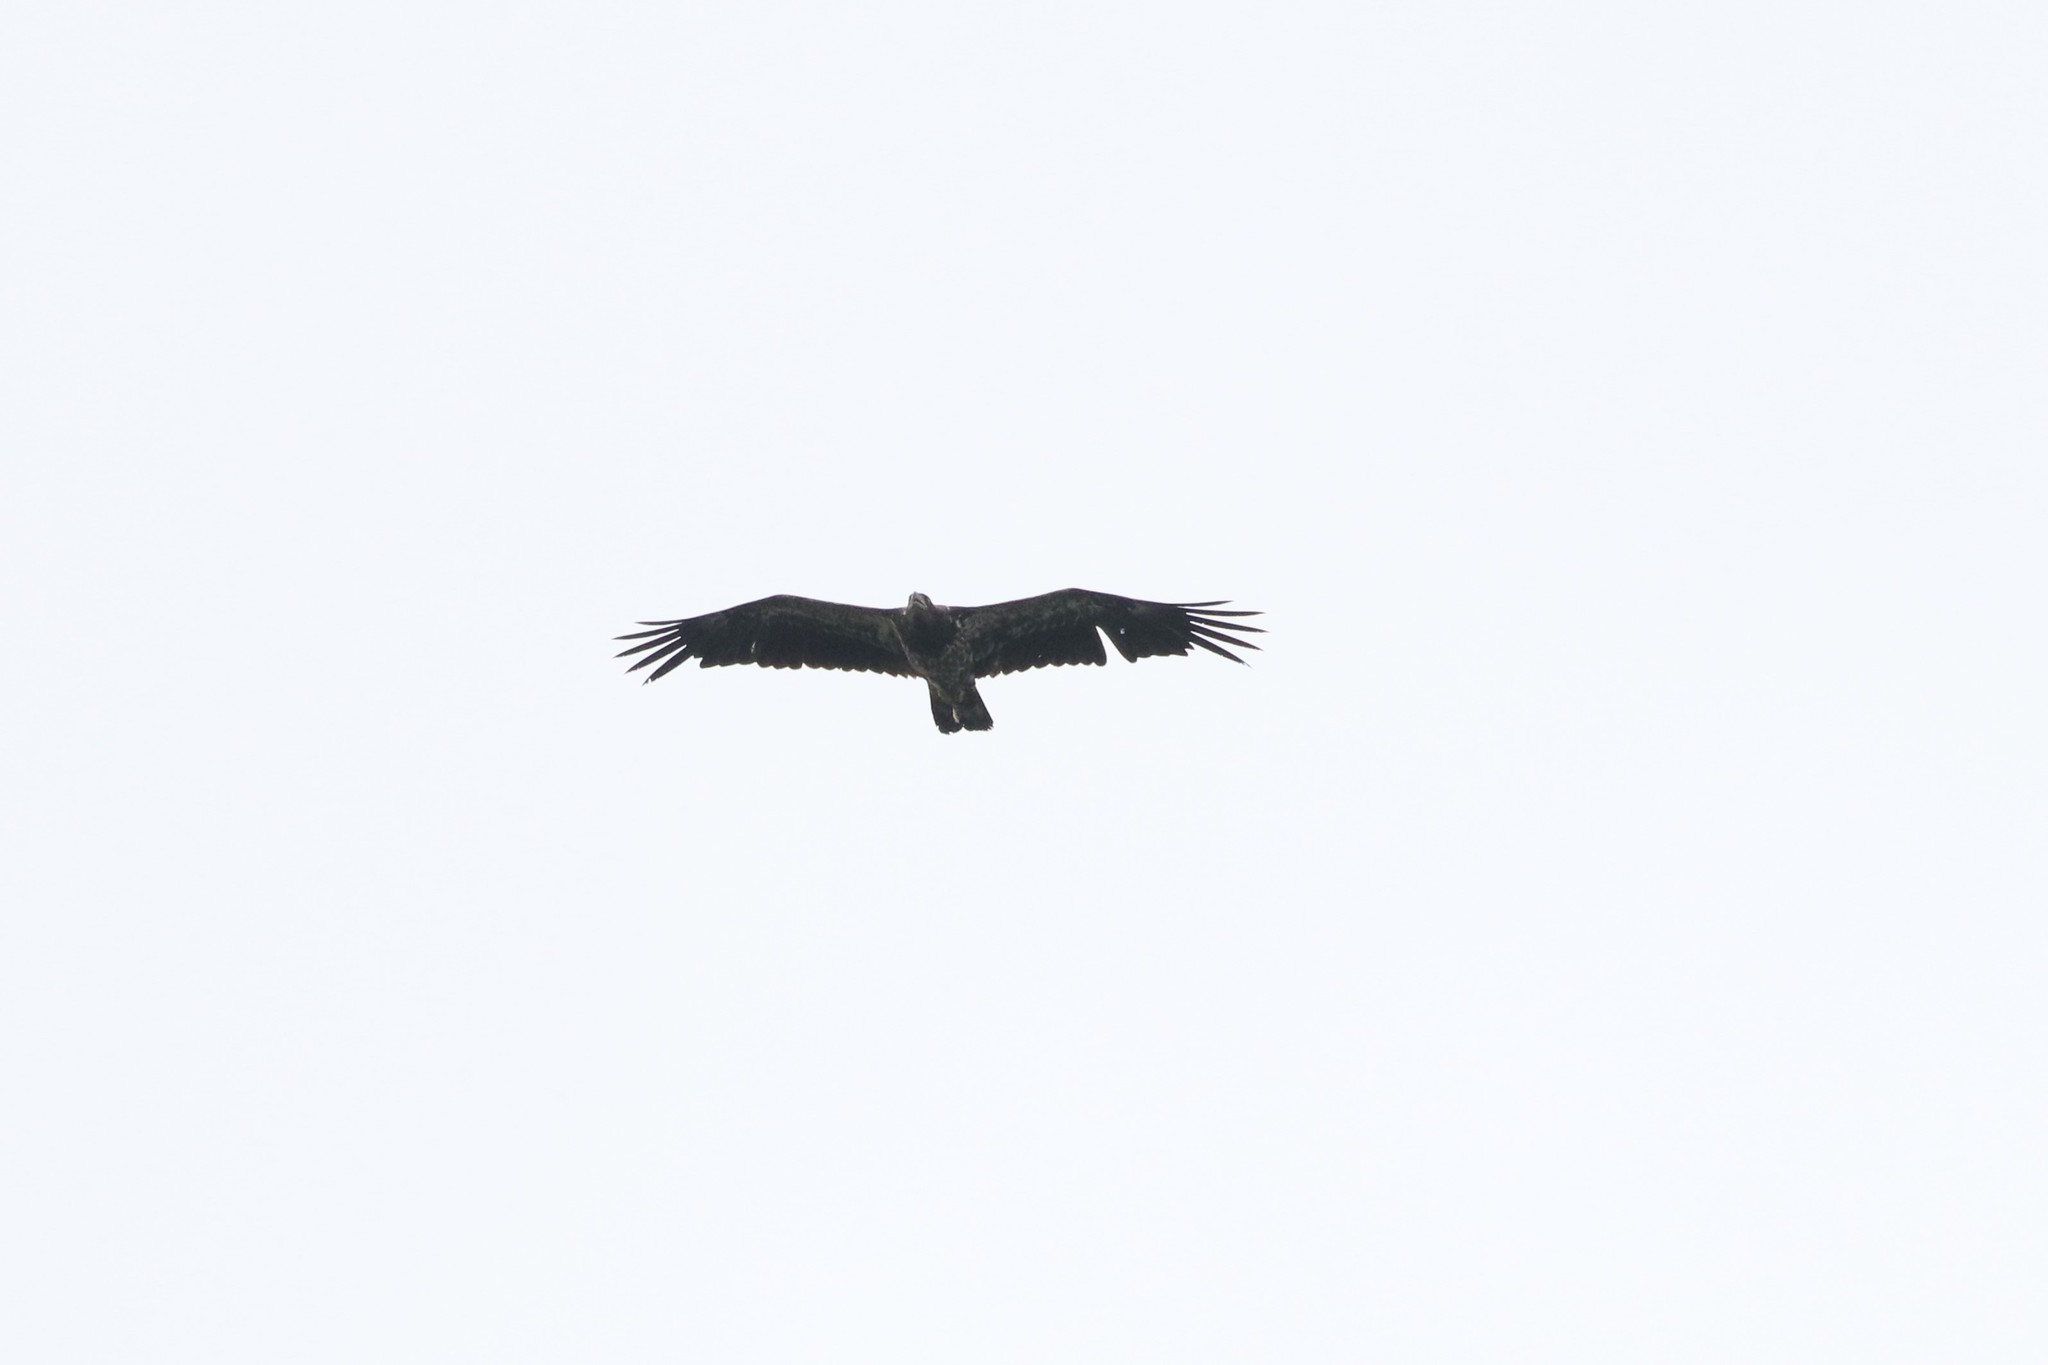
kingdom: Animalia
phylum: Chordata
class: Aves
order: Accipitriformes
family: Accipitridae
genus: Haliaeetus
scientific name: Haliaeetus leucocephalus
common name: Bald eagle
